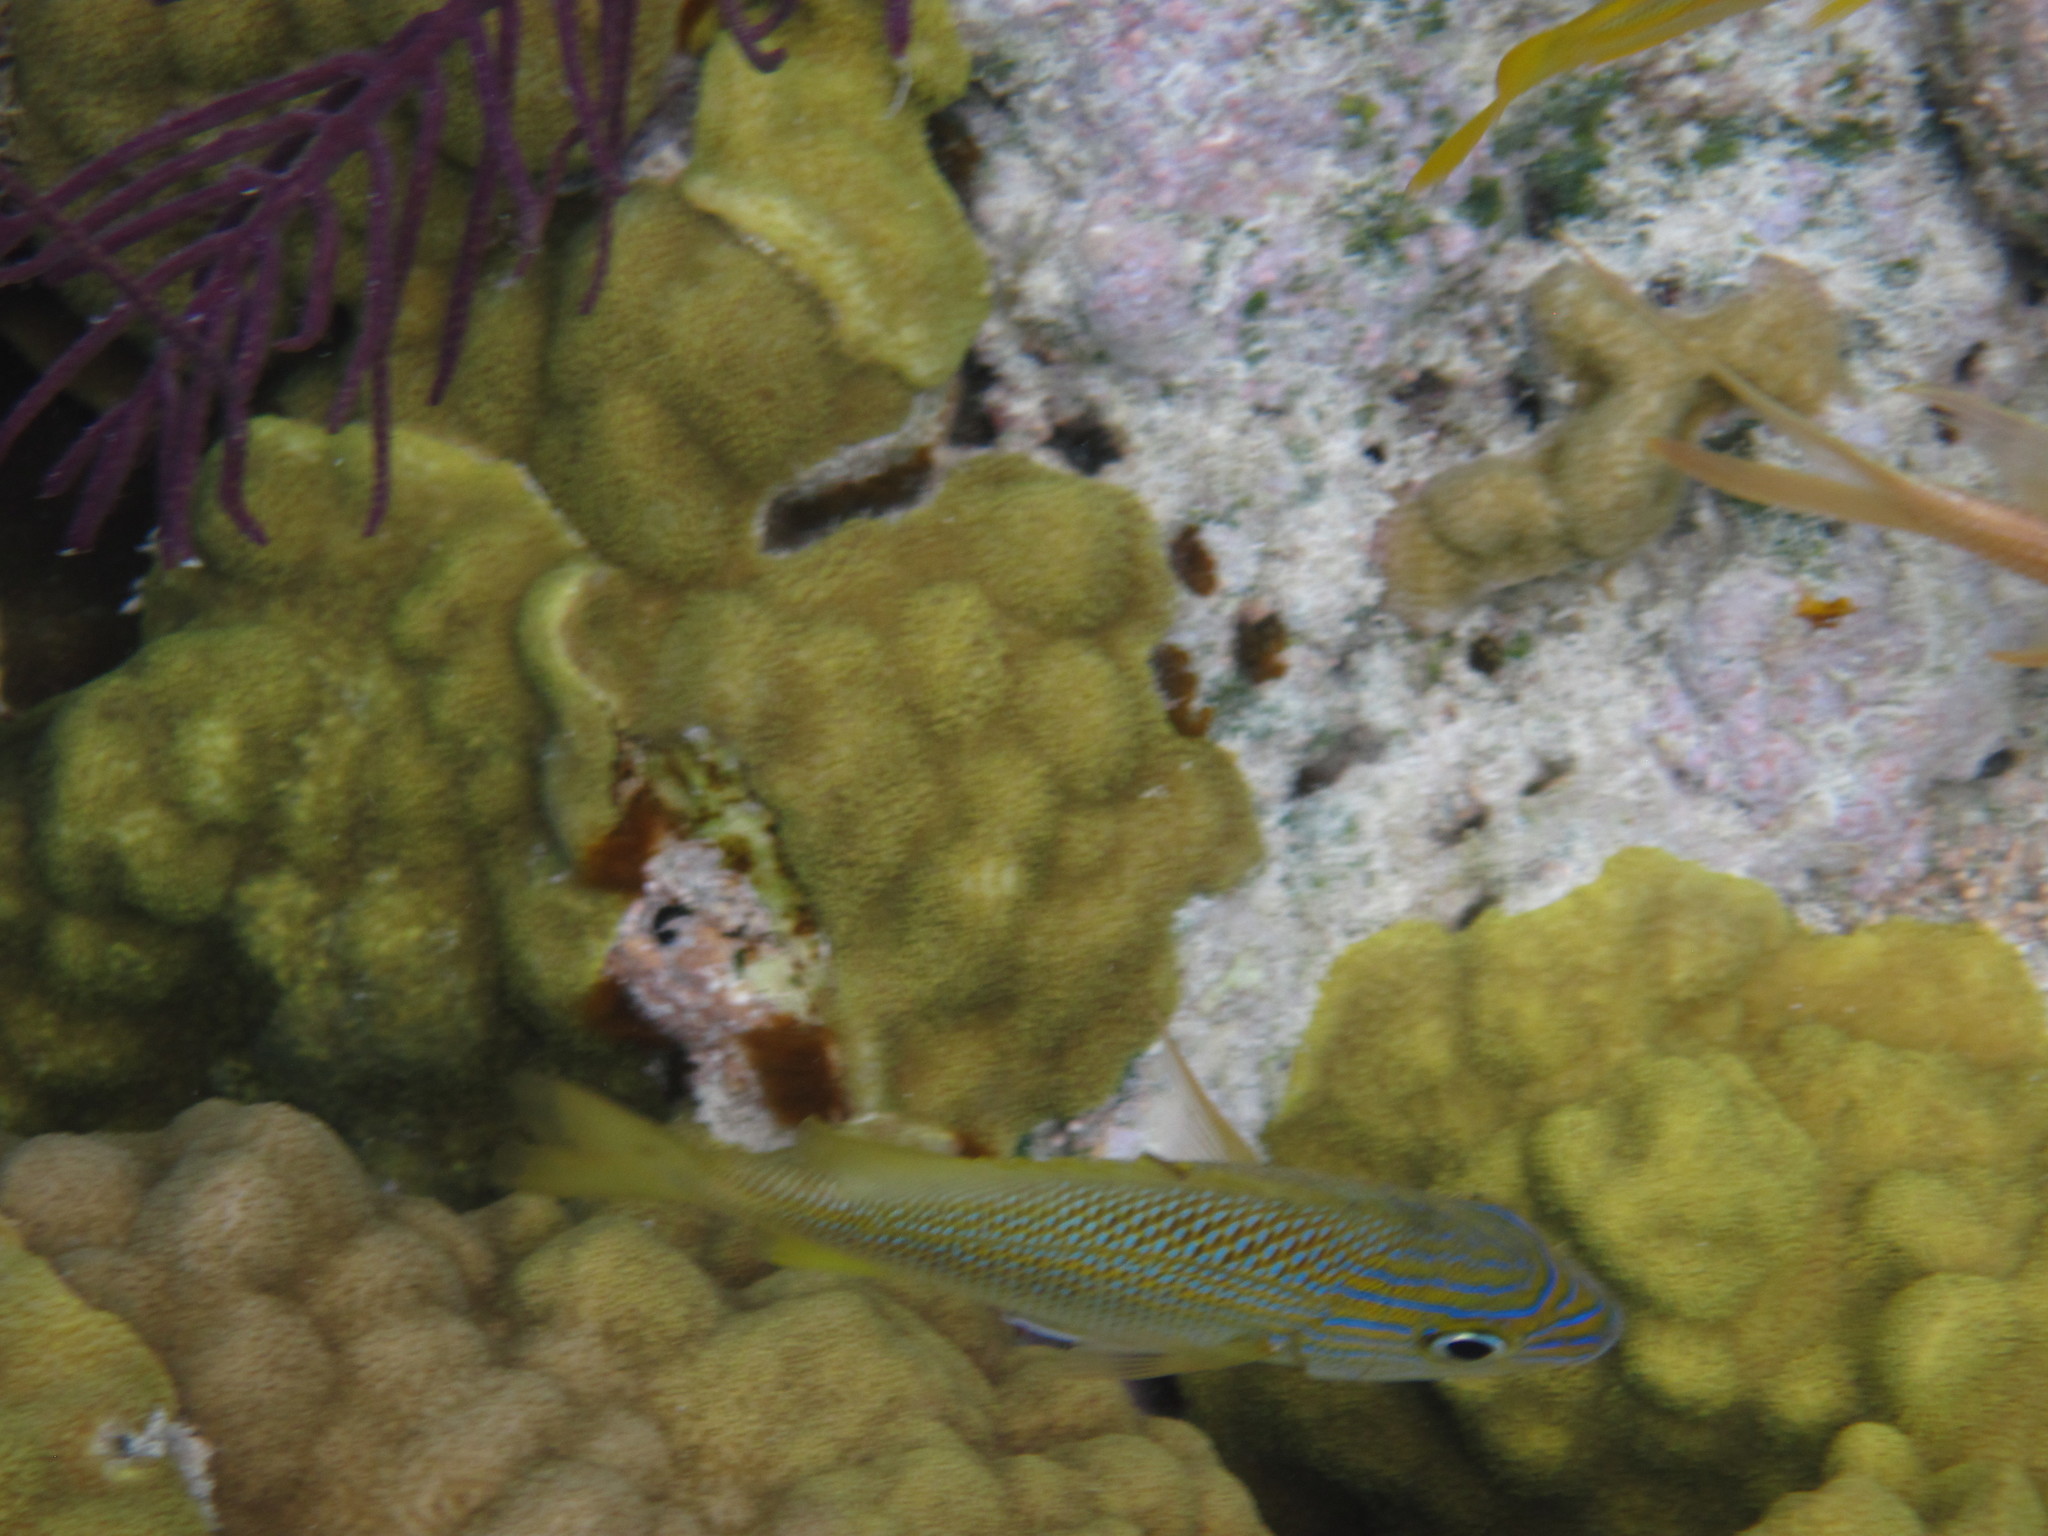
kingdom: Animalia
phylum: Chordata
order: Perciformes
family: Haemulidae
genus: Haemulon
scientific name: Haemulon plumierii
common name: White grunt
